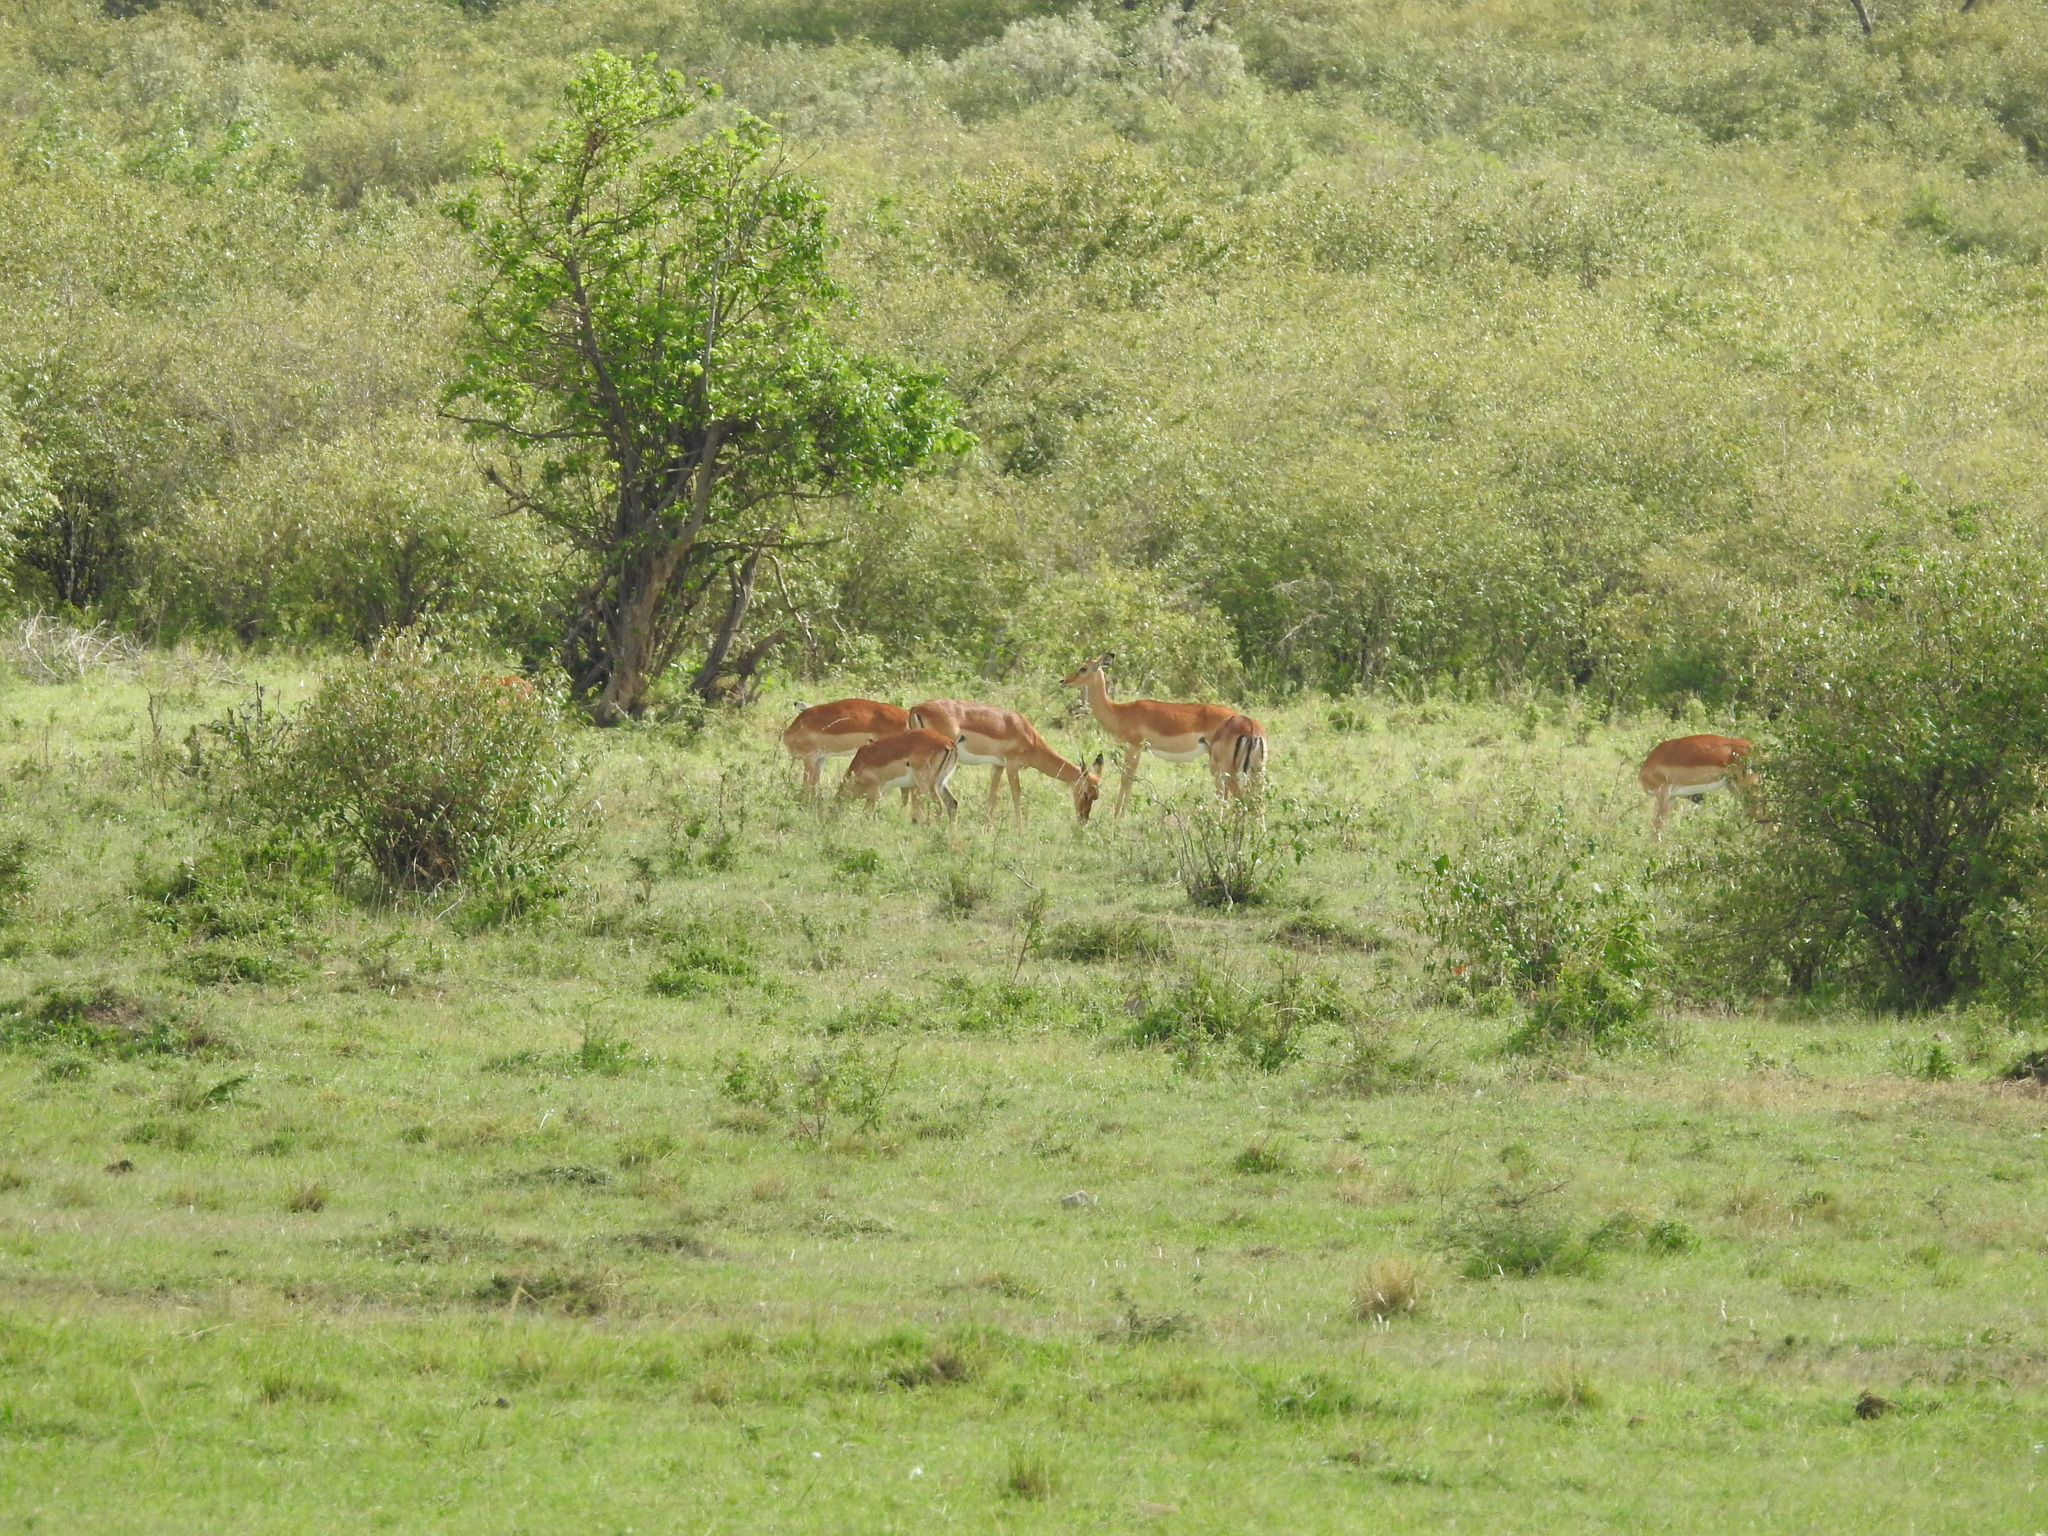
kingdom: Animalia
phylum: Chordata
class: Mammalia
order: Artiodactyla
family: Bovidae
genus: Aepyceros
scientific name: Aepyceros melampus
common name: Impala
